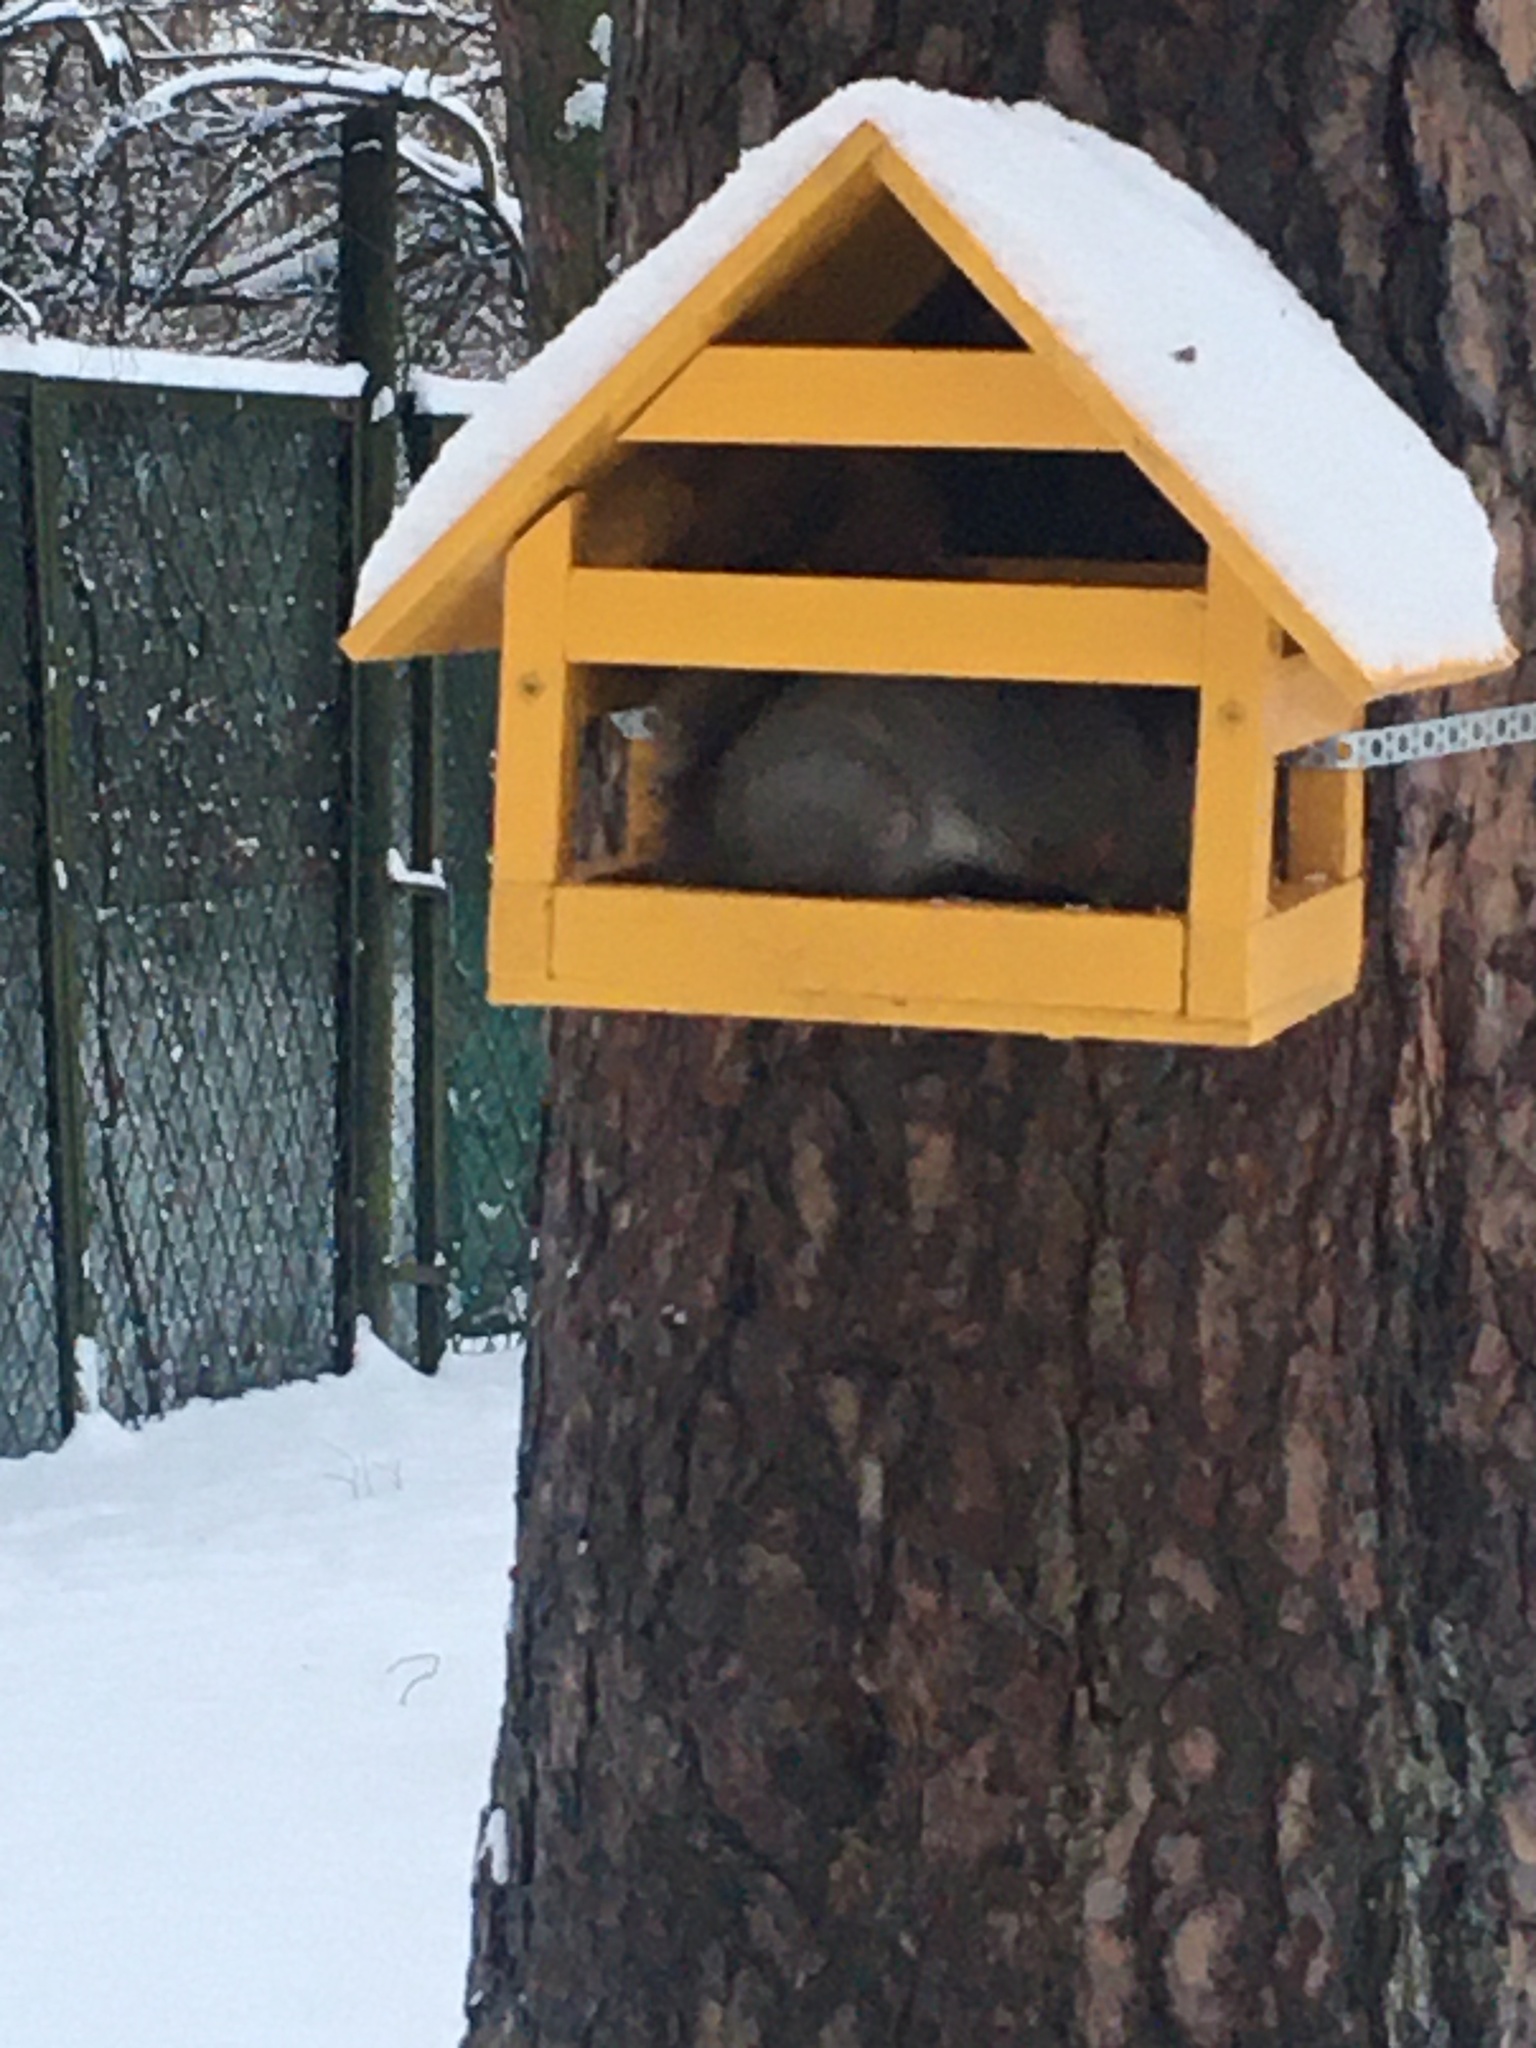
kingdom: Animalia
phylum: Chordata
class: Mammalia
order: Rodentia
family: Sciuridae
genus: Sciurus
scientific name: Sciurus vulgaris
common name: Eurasian red squirrel
